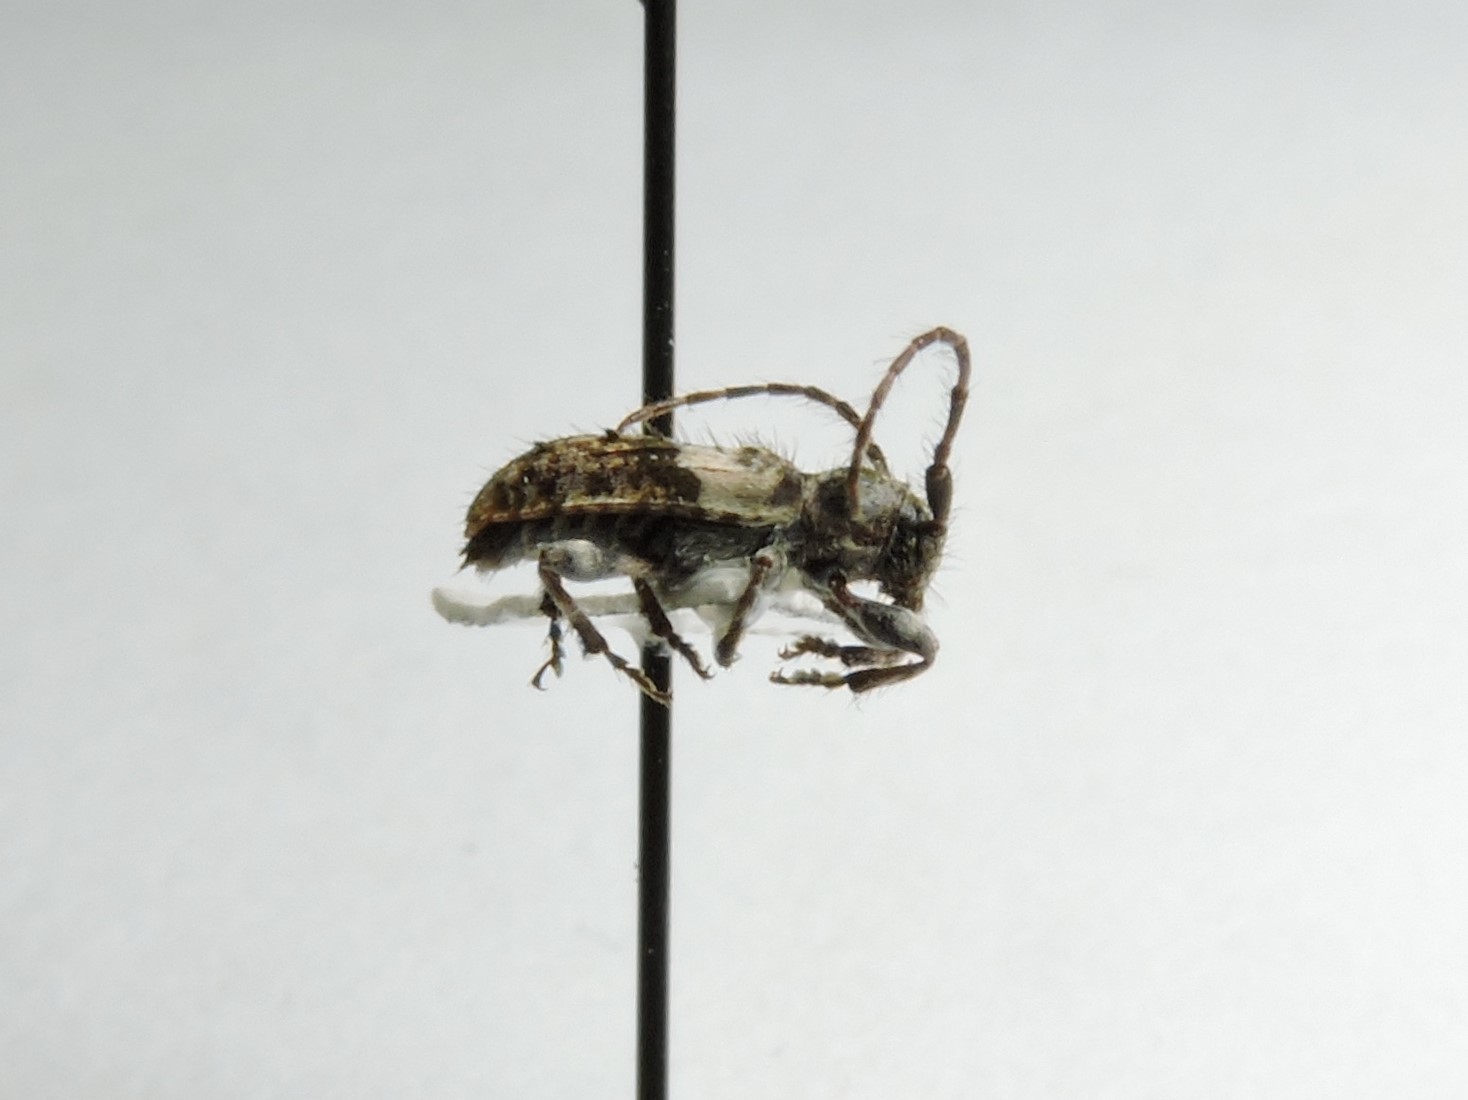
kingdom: Animalia
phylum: Arthropoda
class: Insecta
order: Coleoptera
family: Cerambycidae
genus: Pogonocherus
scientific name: Pogonocherus fasciculatus
